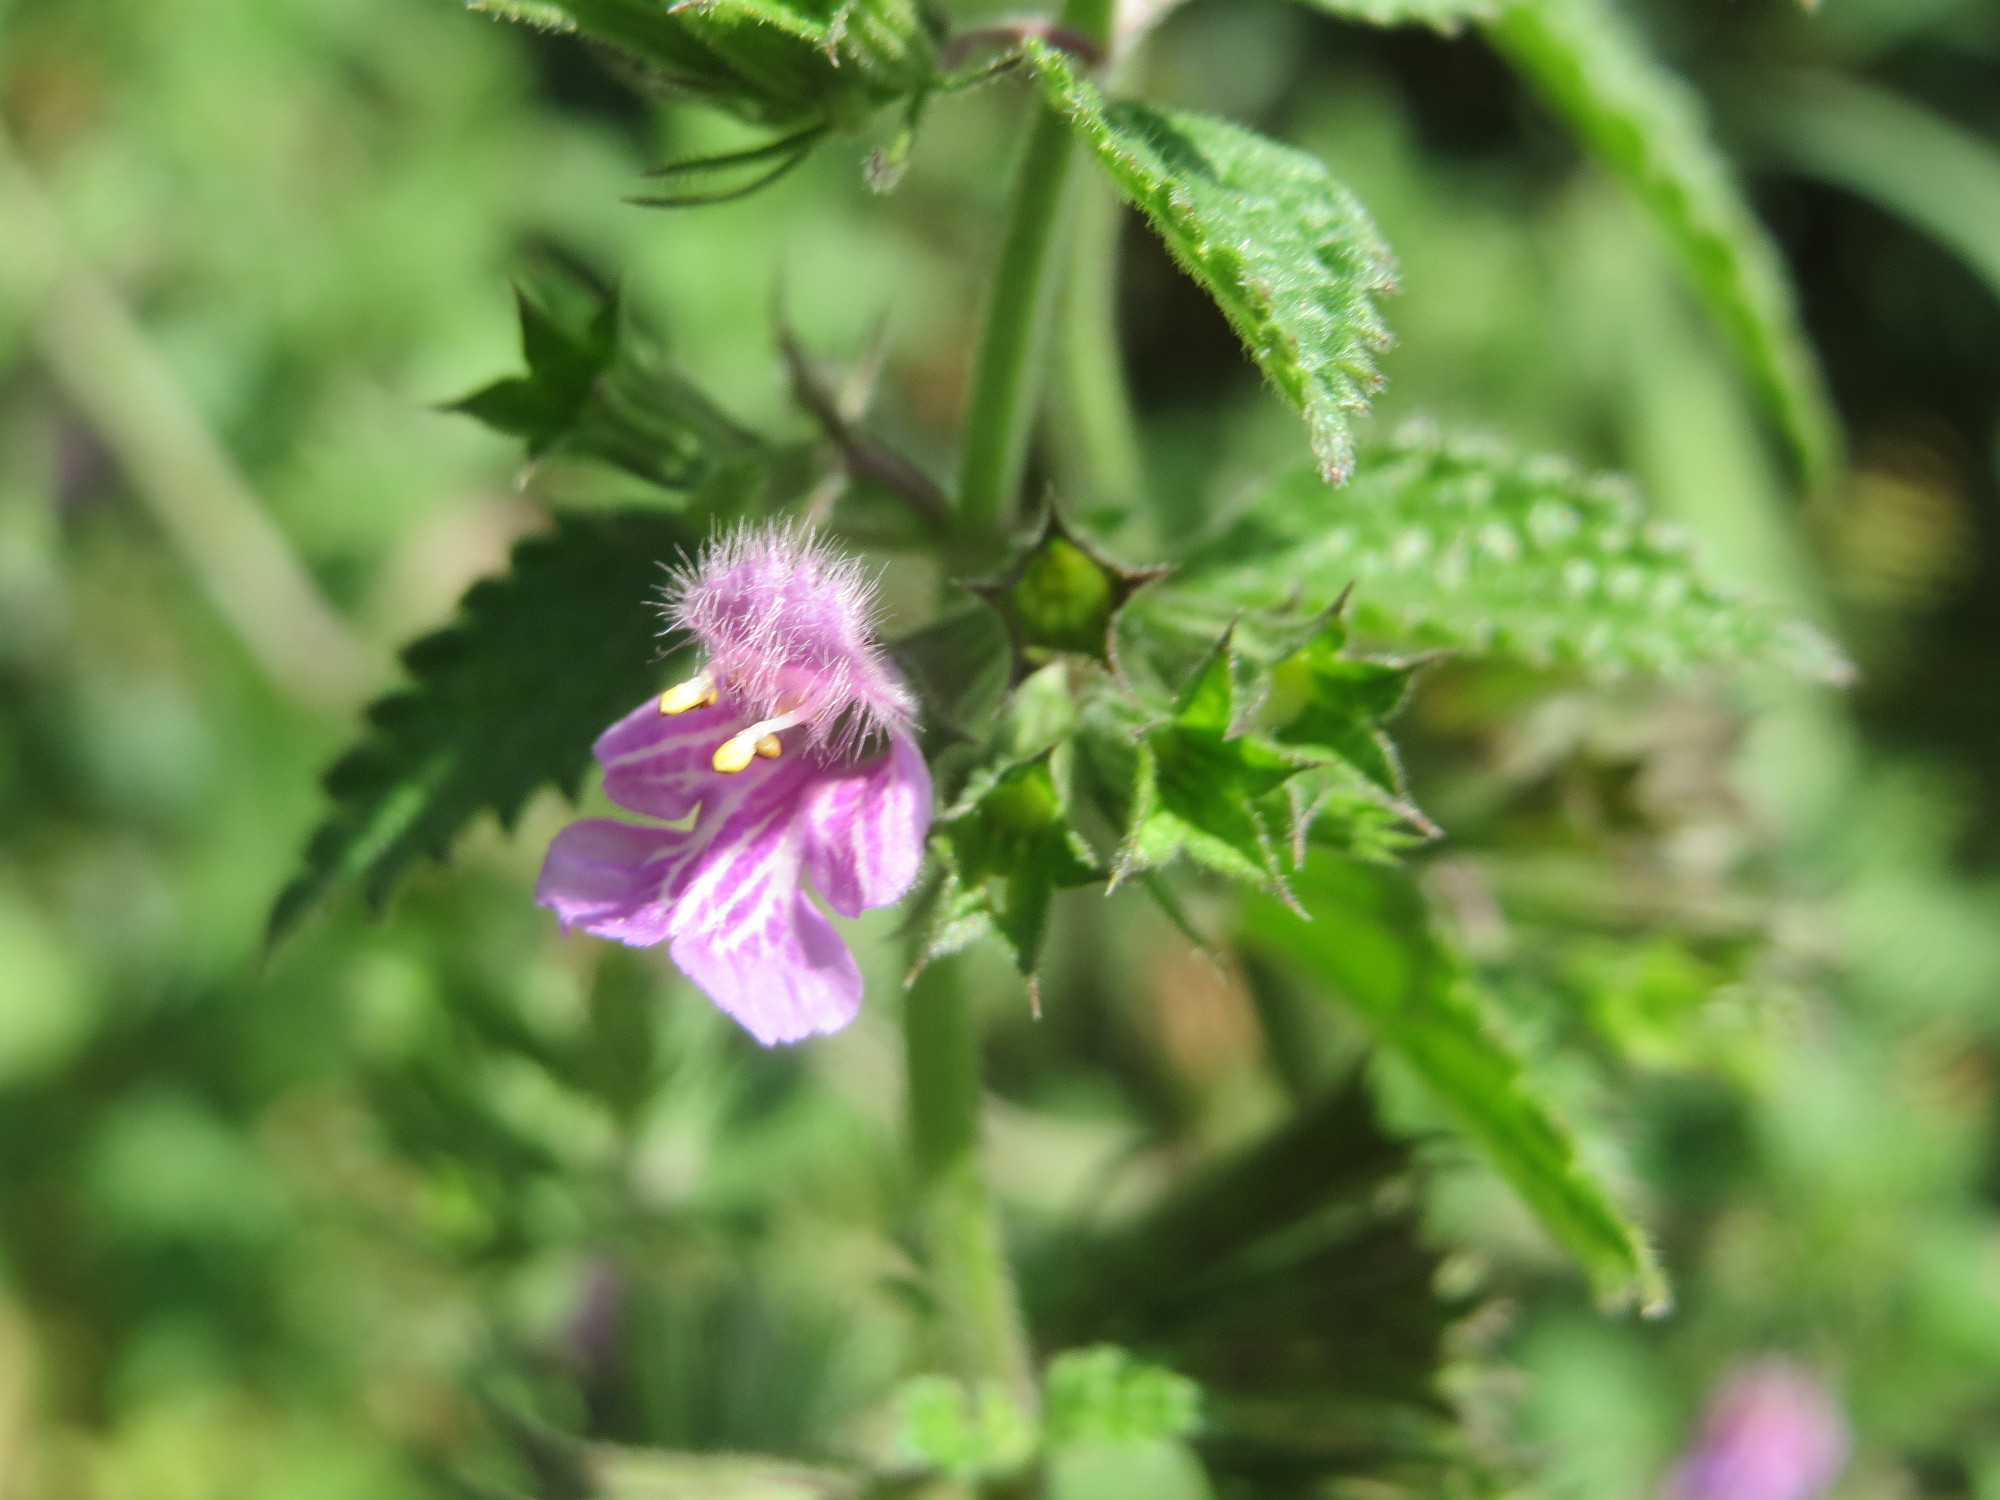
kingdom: Plantae
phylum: Tracheophyta
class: Magnoliopsida
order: Lamiales
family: Lamiaceae
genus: Ballota
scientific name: Ballota nigra
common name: Black horehound
